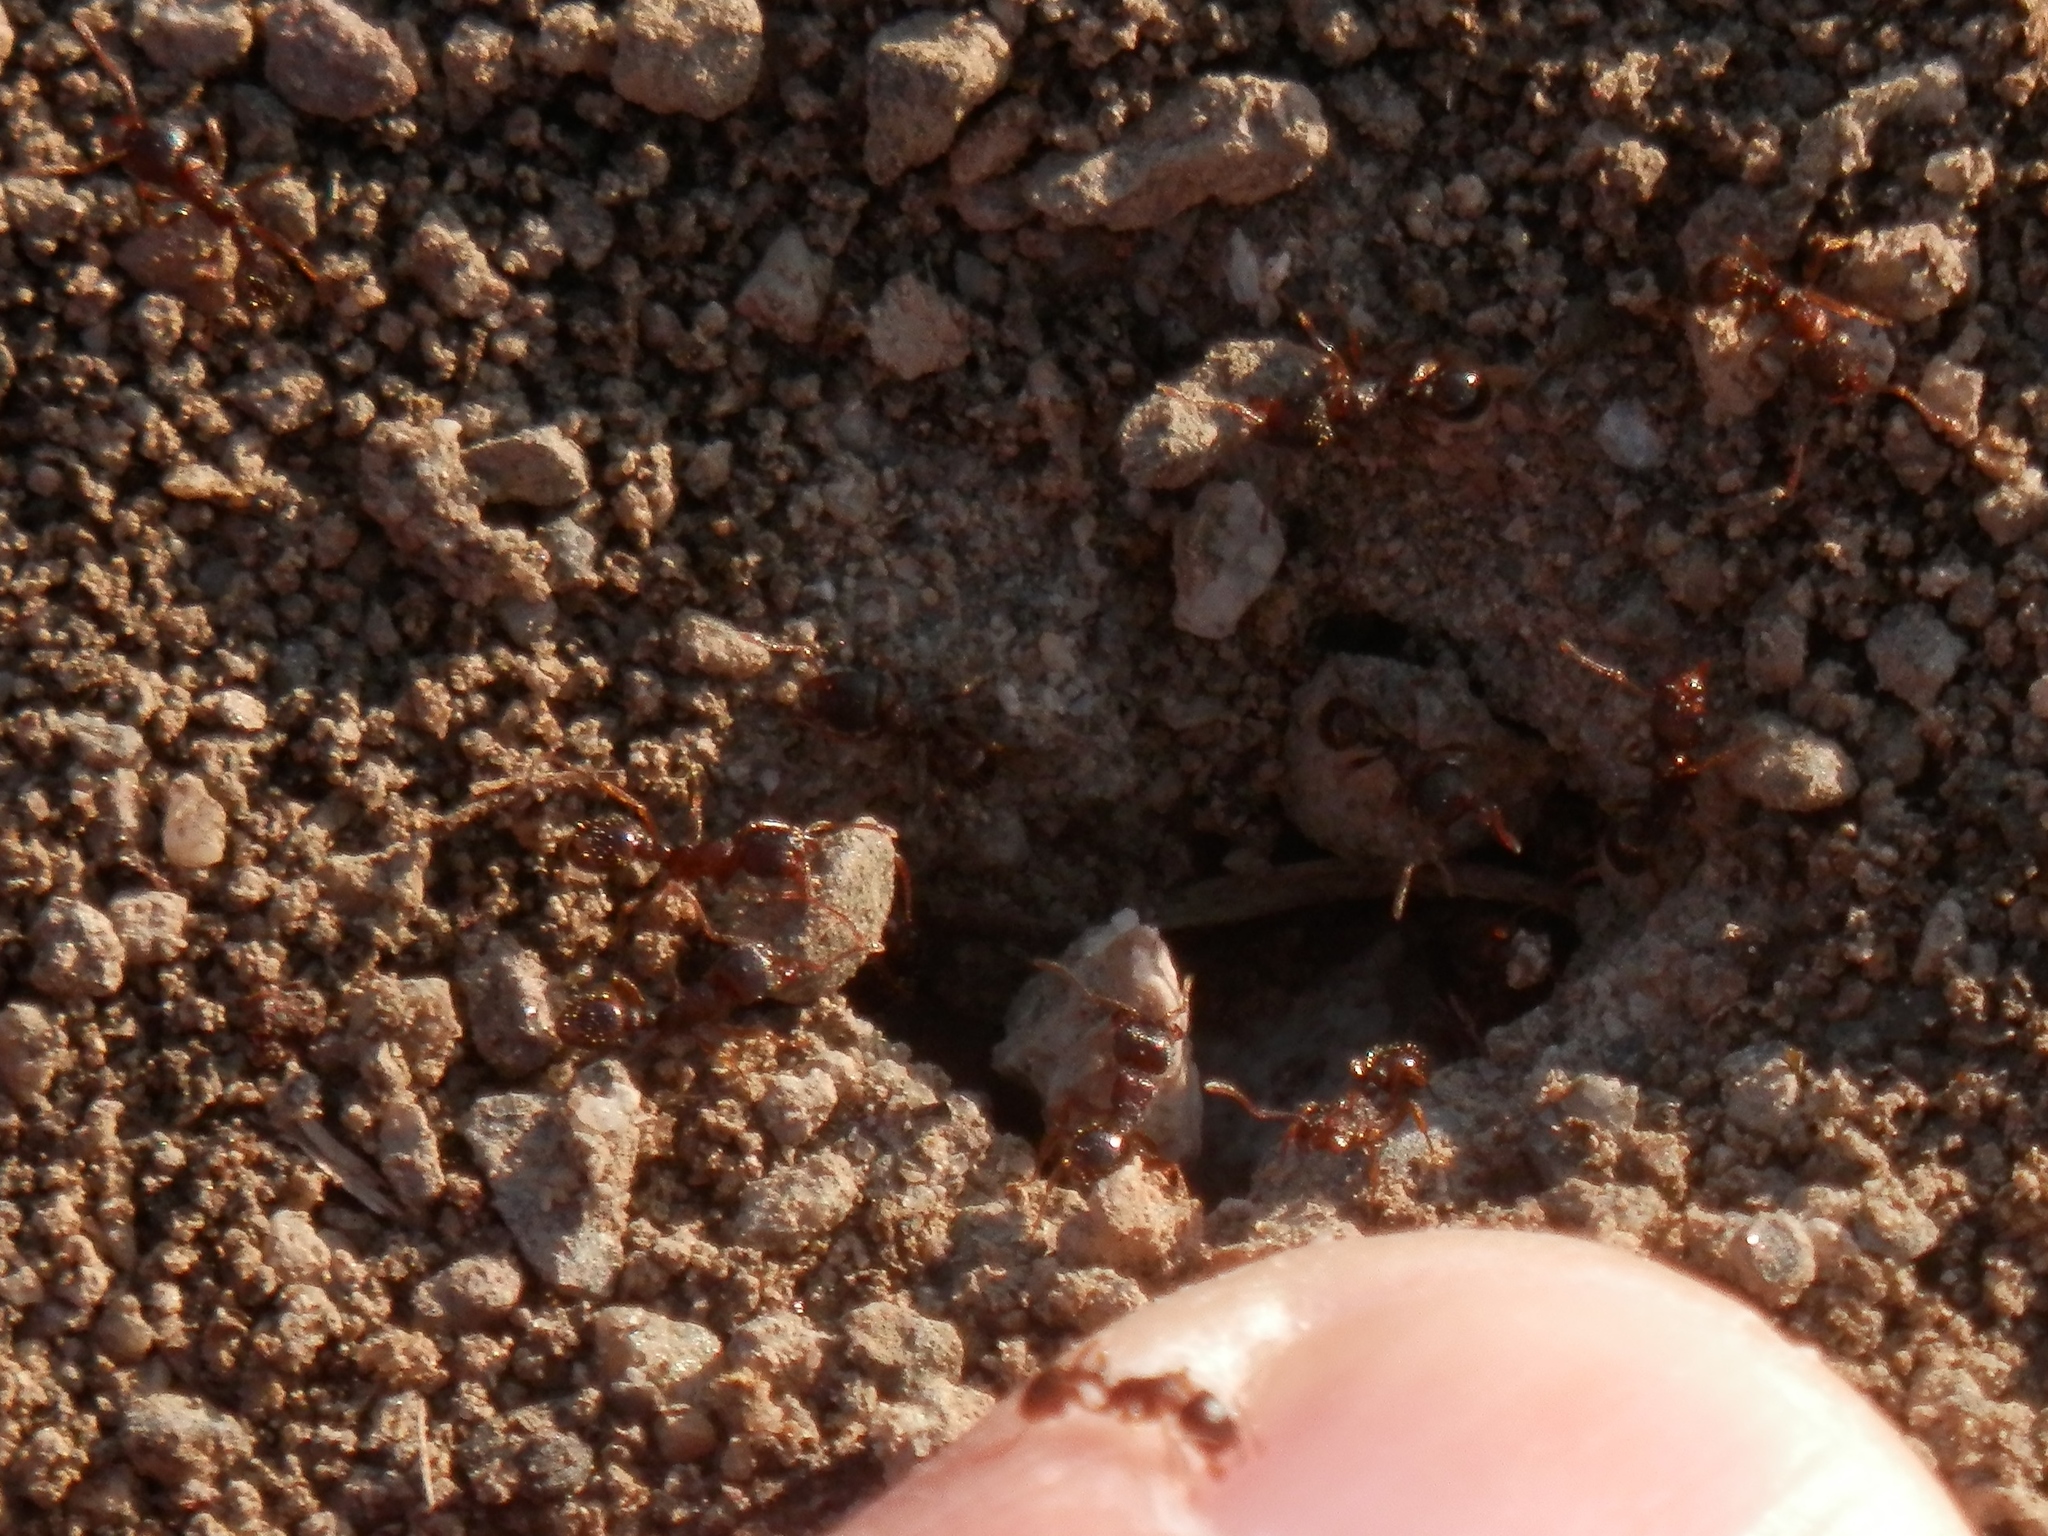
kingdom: Animalia
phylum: Arthropoda
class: Insecta
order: Hymenoptera
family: Formicidae
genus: Tetramorium
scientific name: Tetramorium immigrans
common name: Pavement ant
